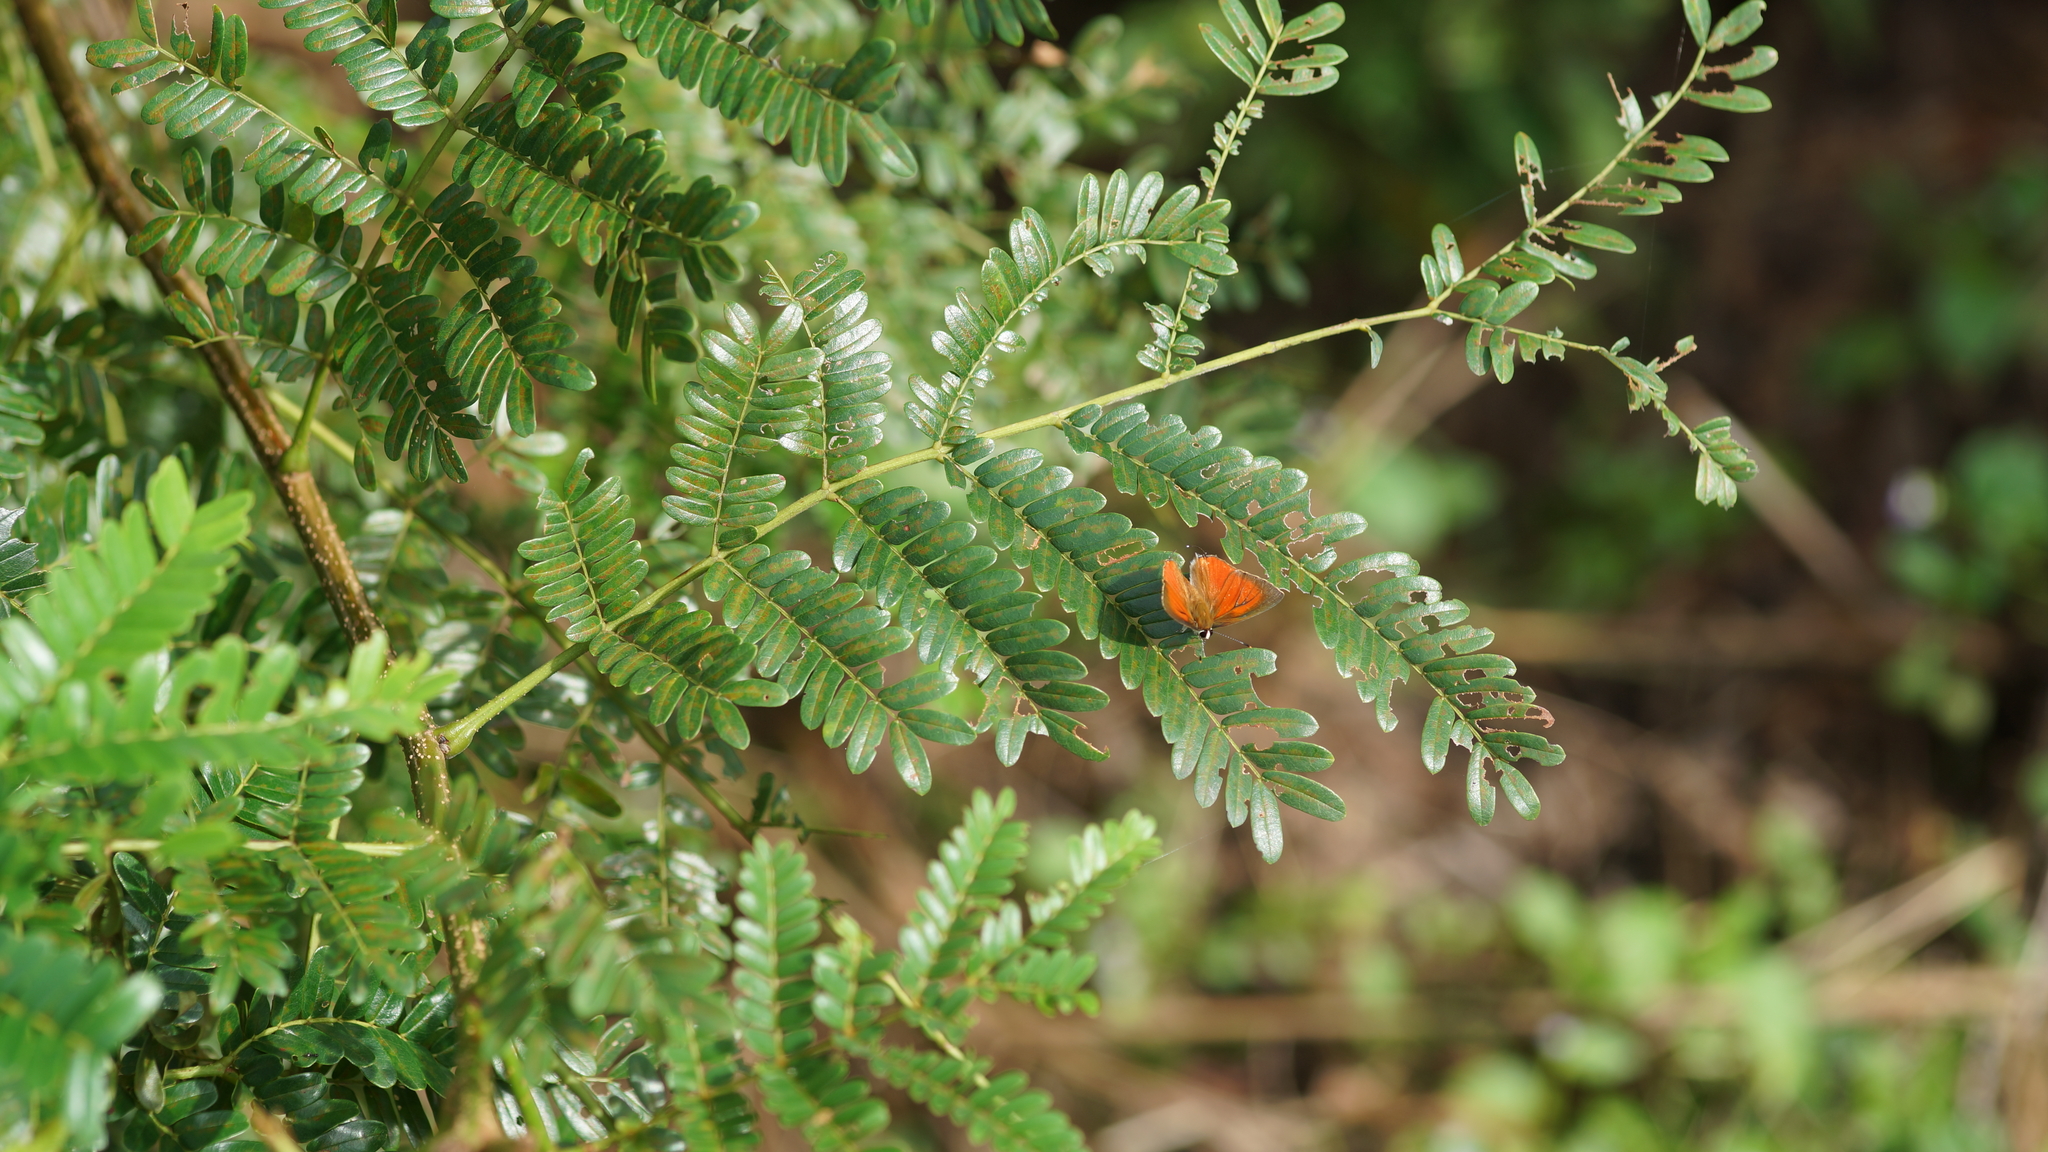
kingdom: Animalia
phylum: Arthropoda
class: Insecta
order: Lepidoptera
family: Lycaenidae
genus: Rapala
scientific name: Rapala iarbus
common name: Common red flash
